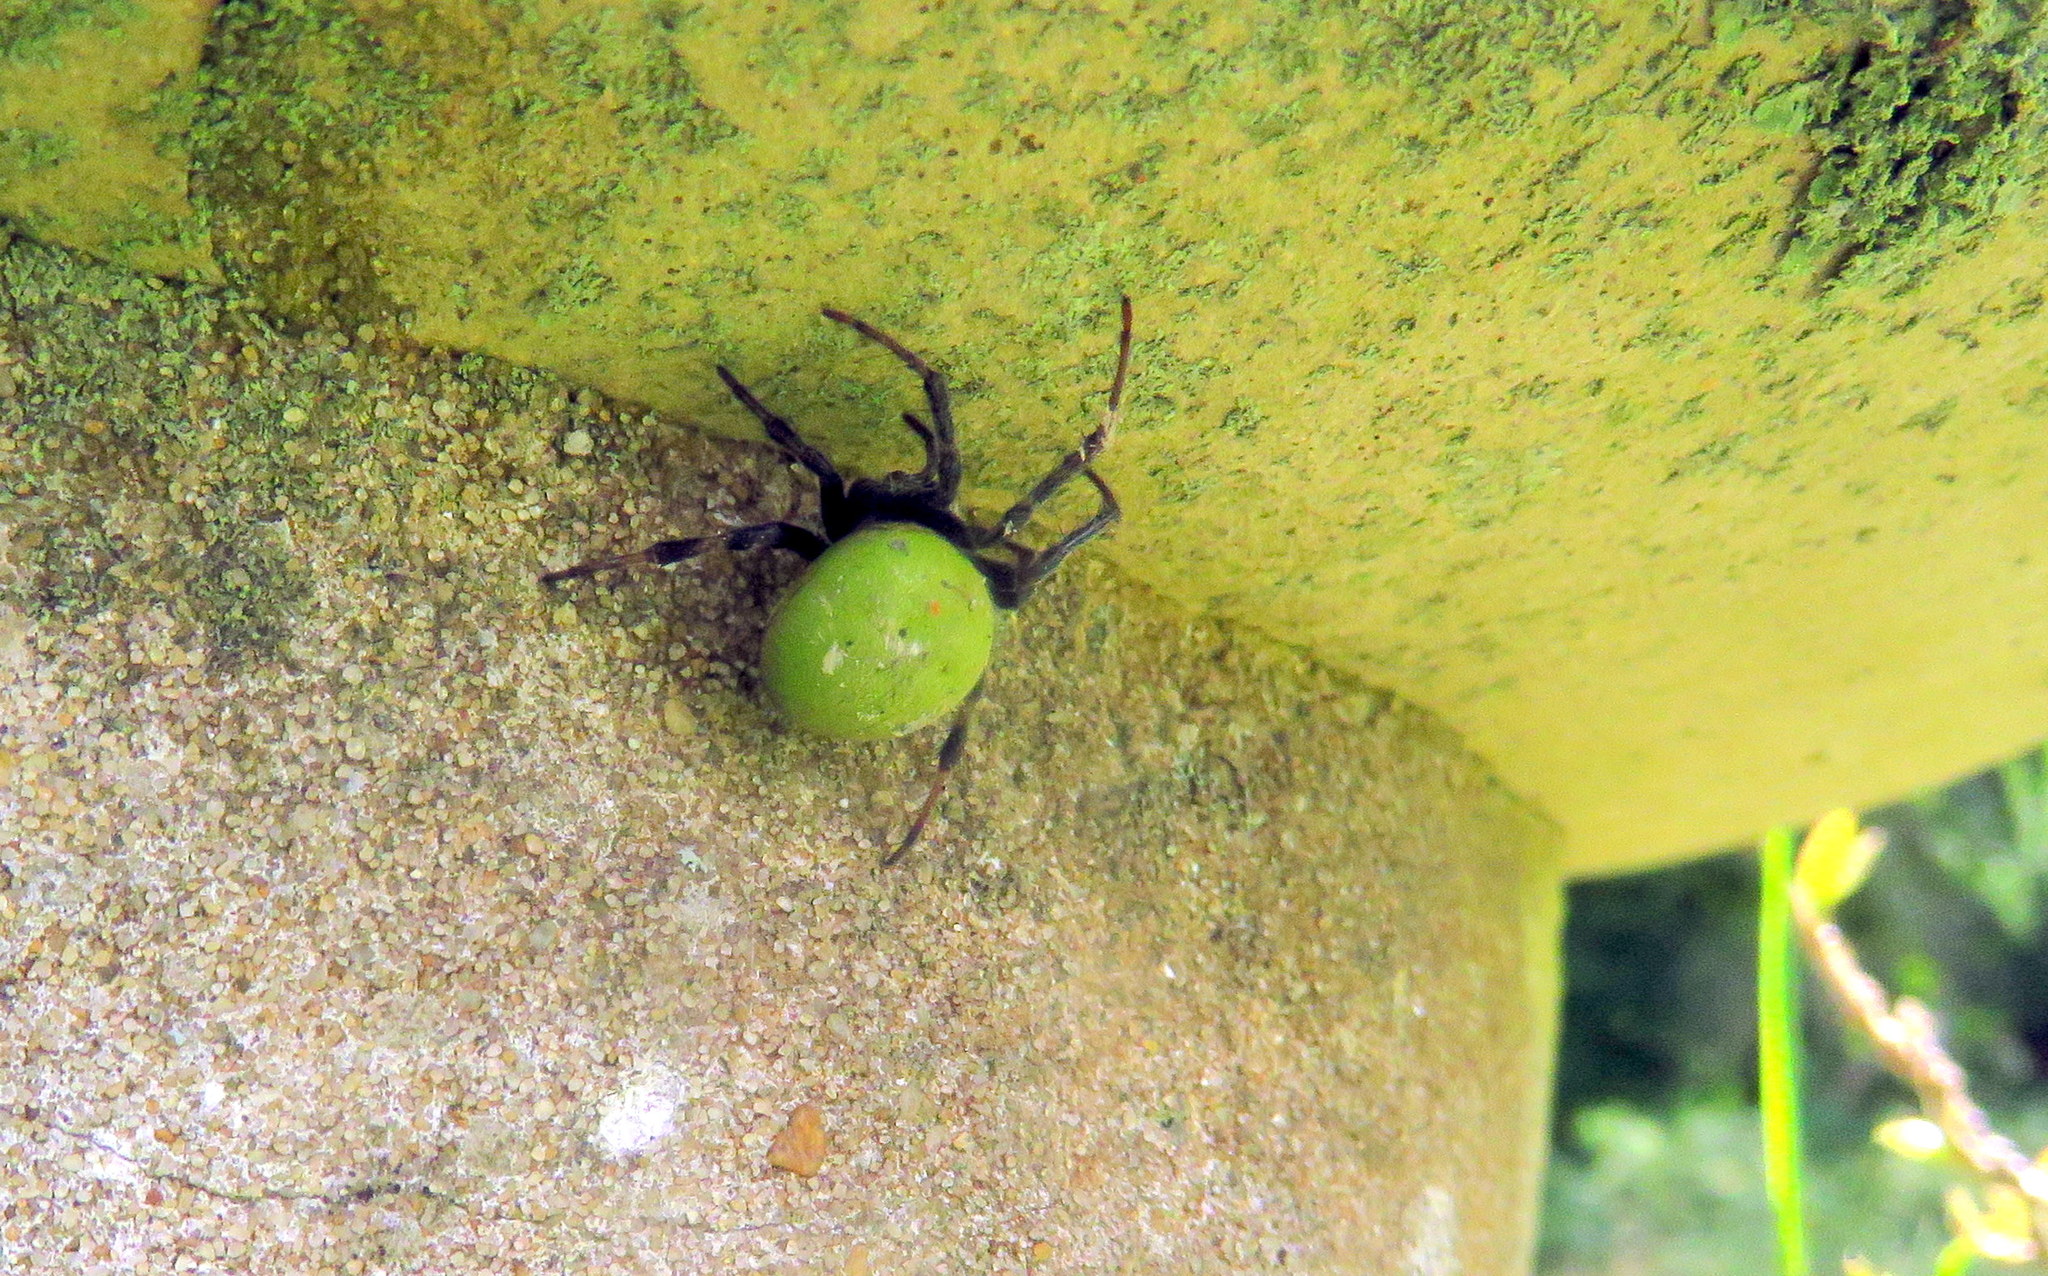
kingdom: Animalia
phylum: Arthropoda
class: Arachnida
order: Araneae
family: Araneidae
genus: Araneus
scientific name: Araneus lathyrinus
